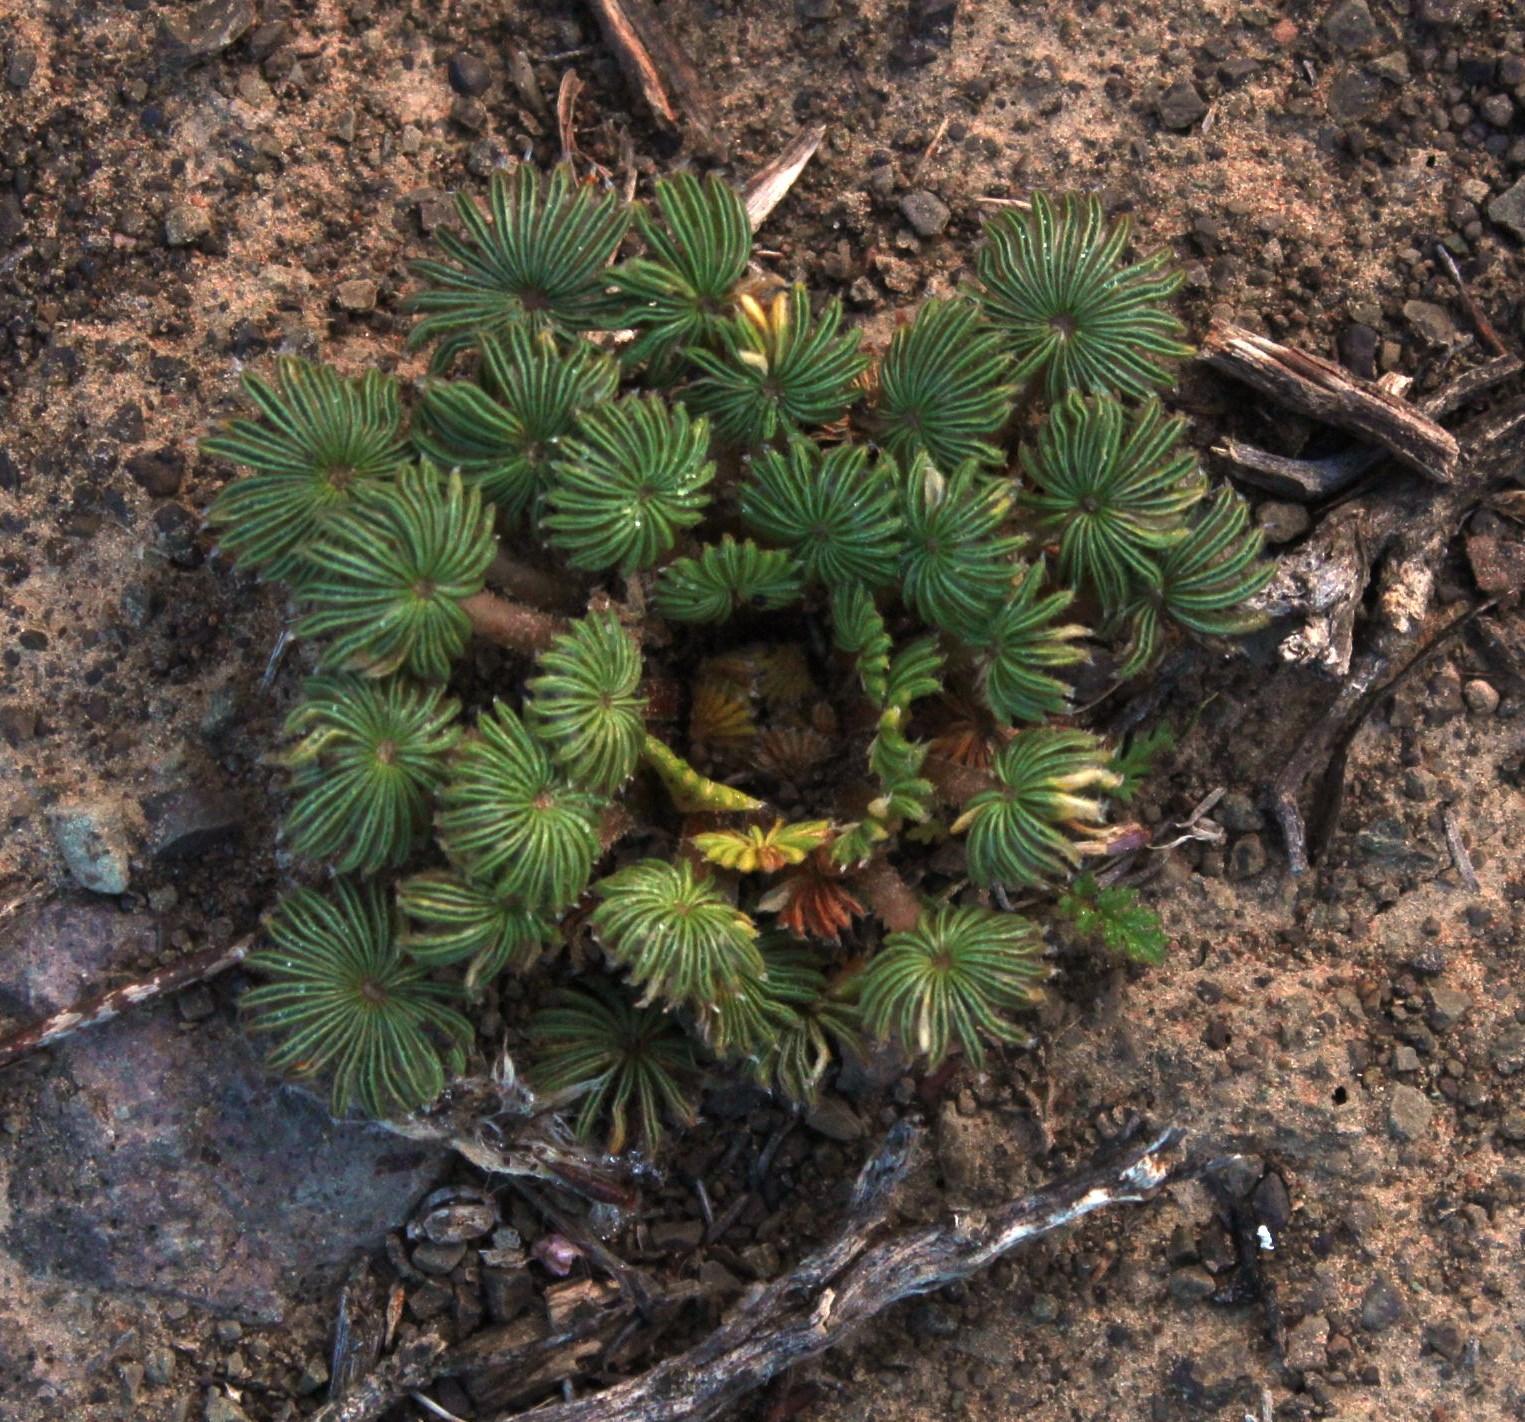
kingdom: Plantae
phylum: Tracheophyta
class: Magnoliopsida
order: Oxalidales
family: Oxalidaceae
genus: Oxalis
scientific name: Oxalis palmifrons
